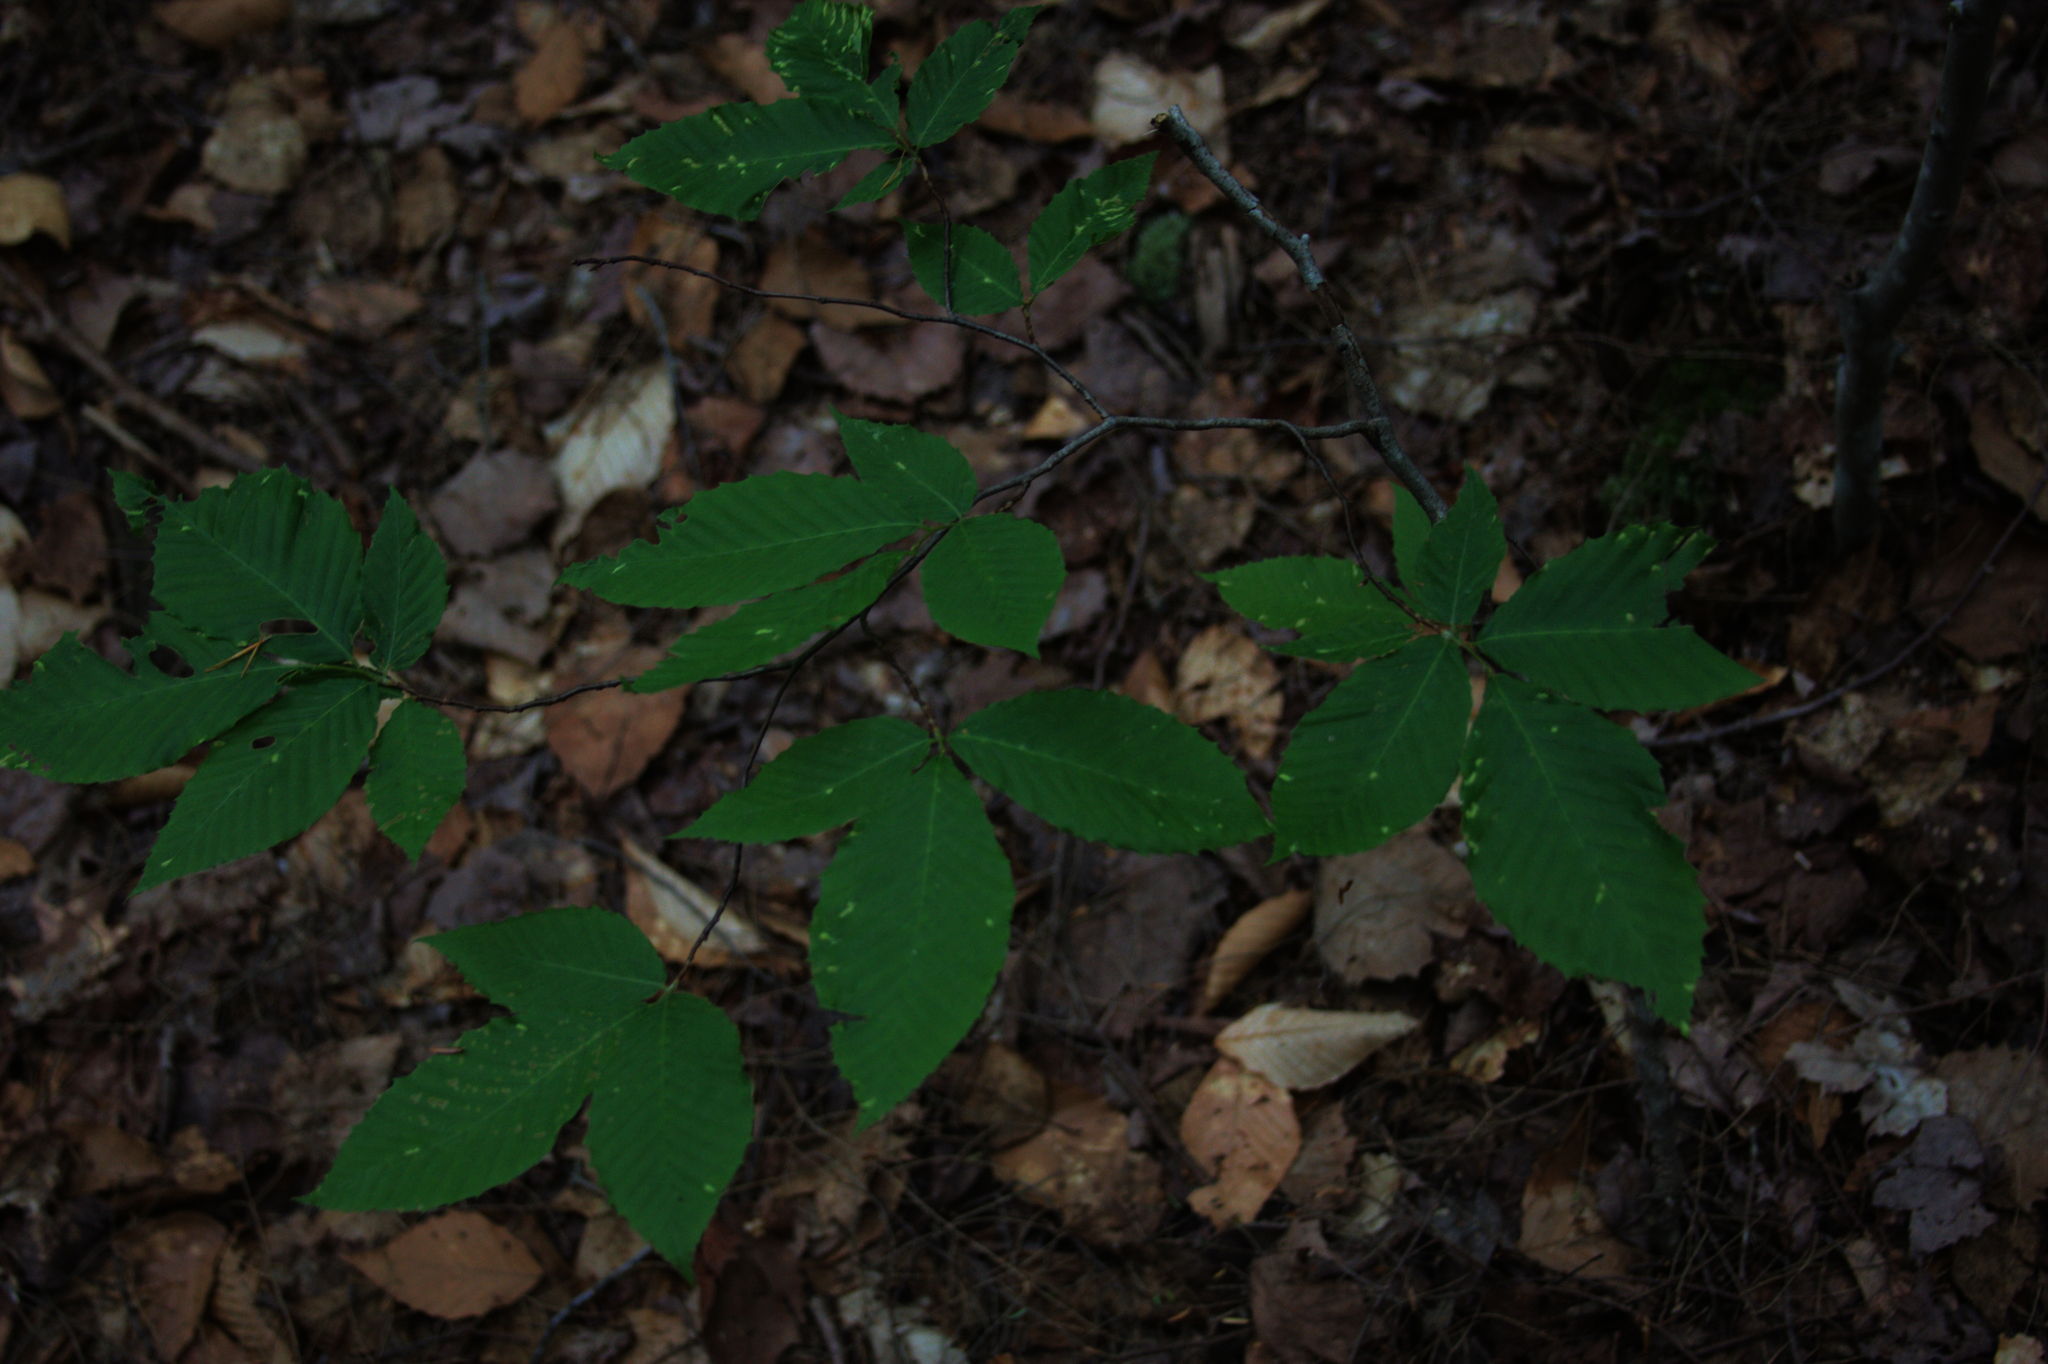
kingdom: Plantae
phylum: Tracheophyta
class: Magnoliopsida
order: Fagales
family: Fagaceae
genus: Fagus
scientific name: Fagus grandifolia
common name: American beech
